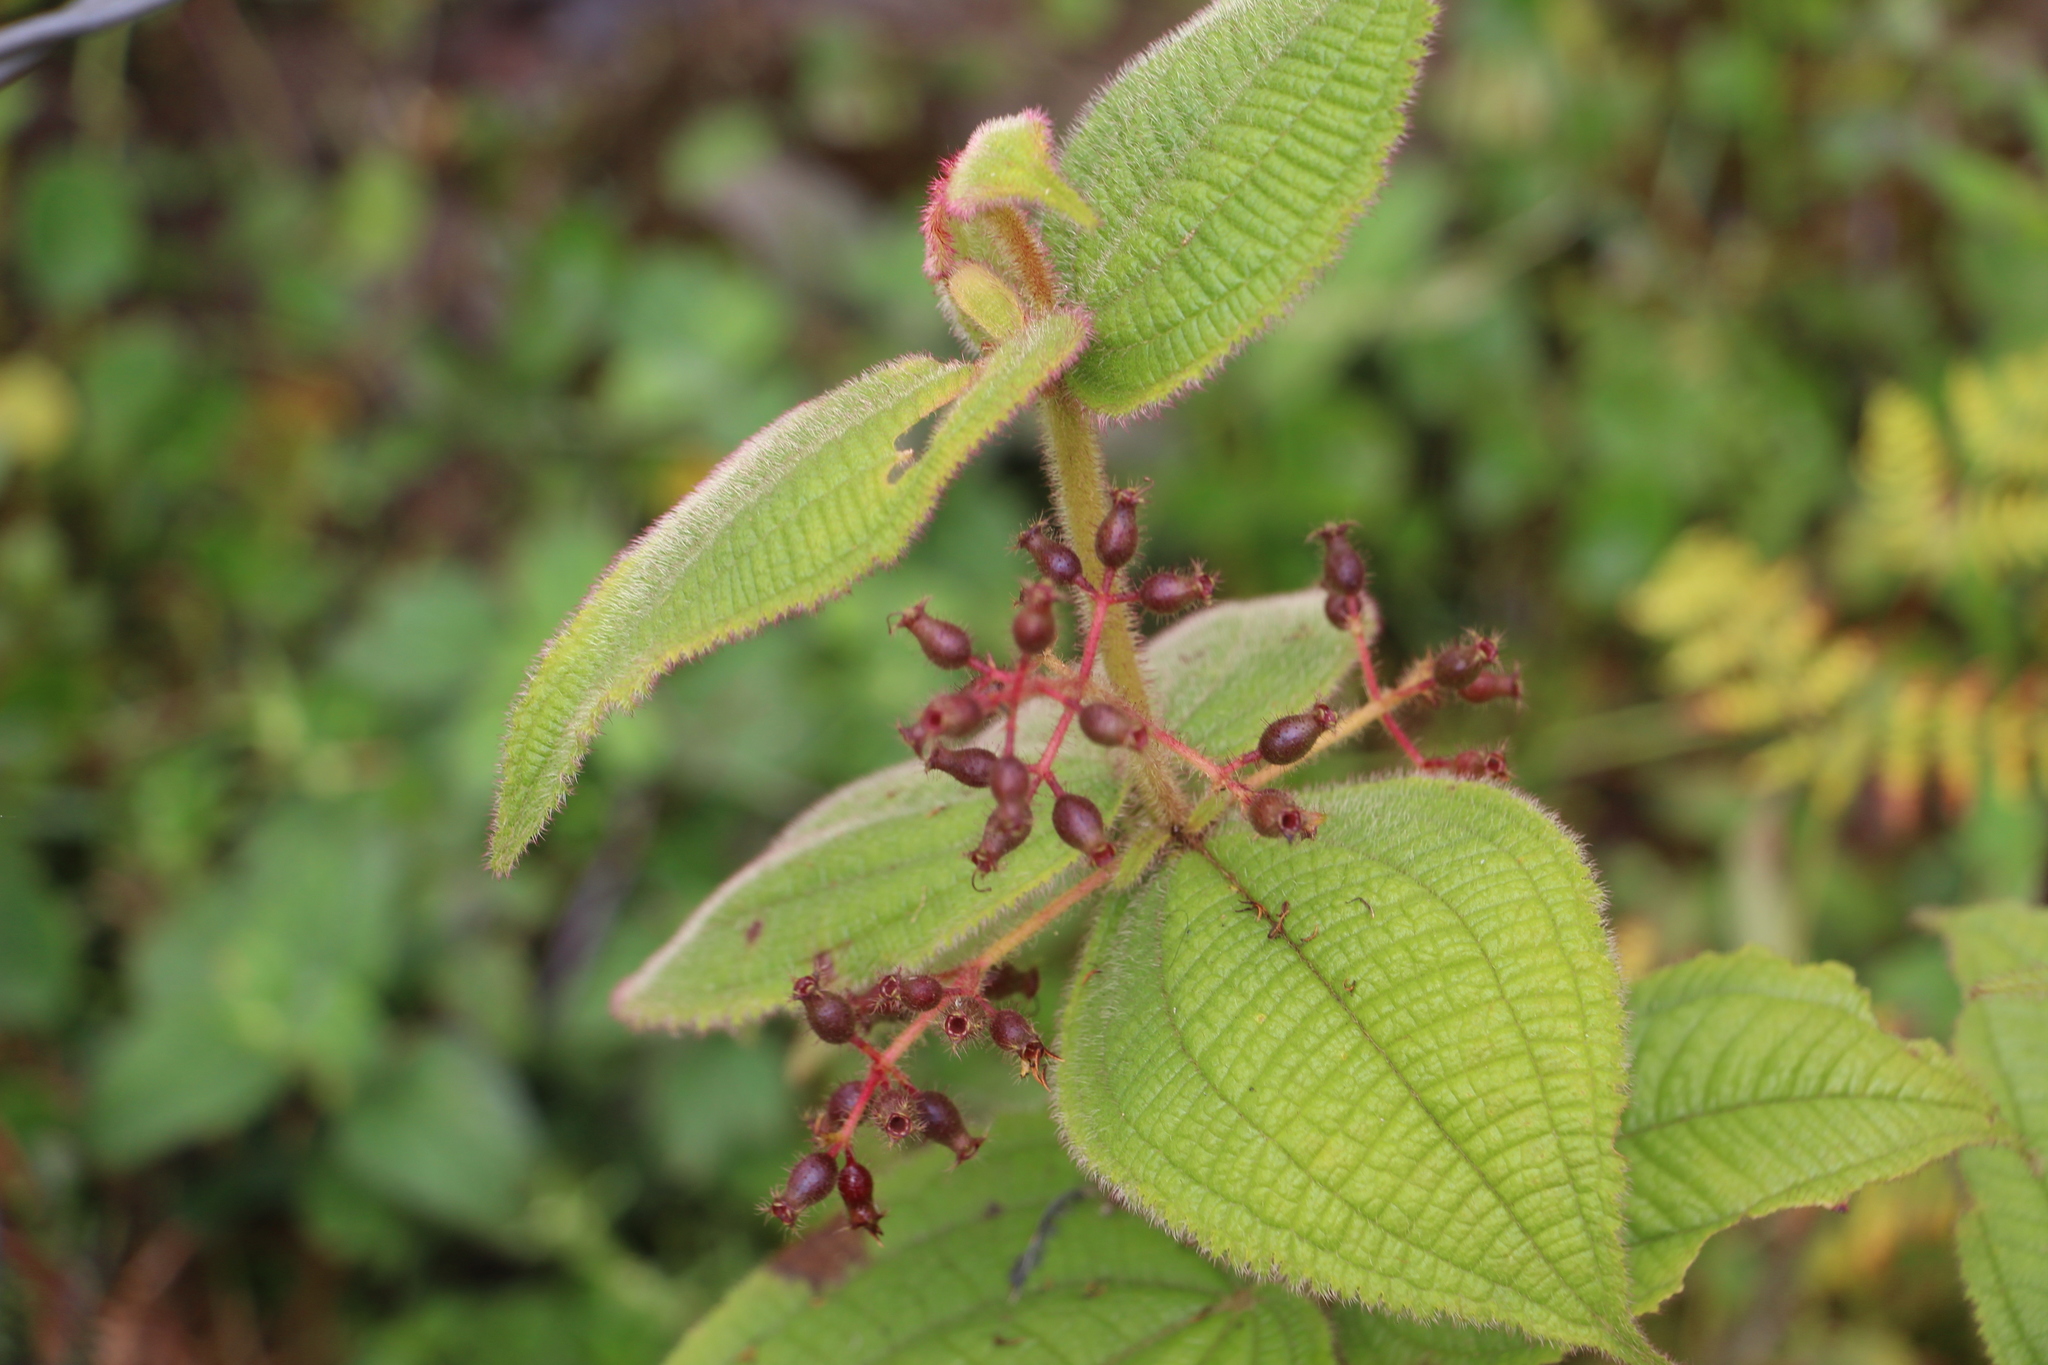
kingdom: Plantae
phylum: Tracheophyta
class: Magnoliopsida
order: Myrtales
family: Melastomataceae
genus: Miconia
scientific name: Miconia domociliata
